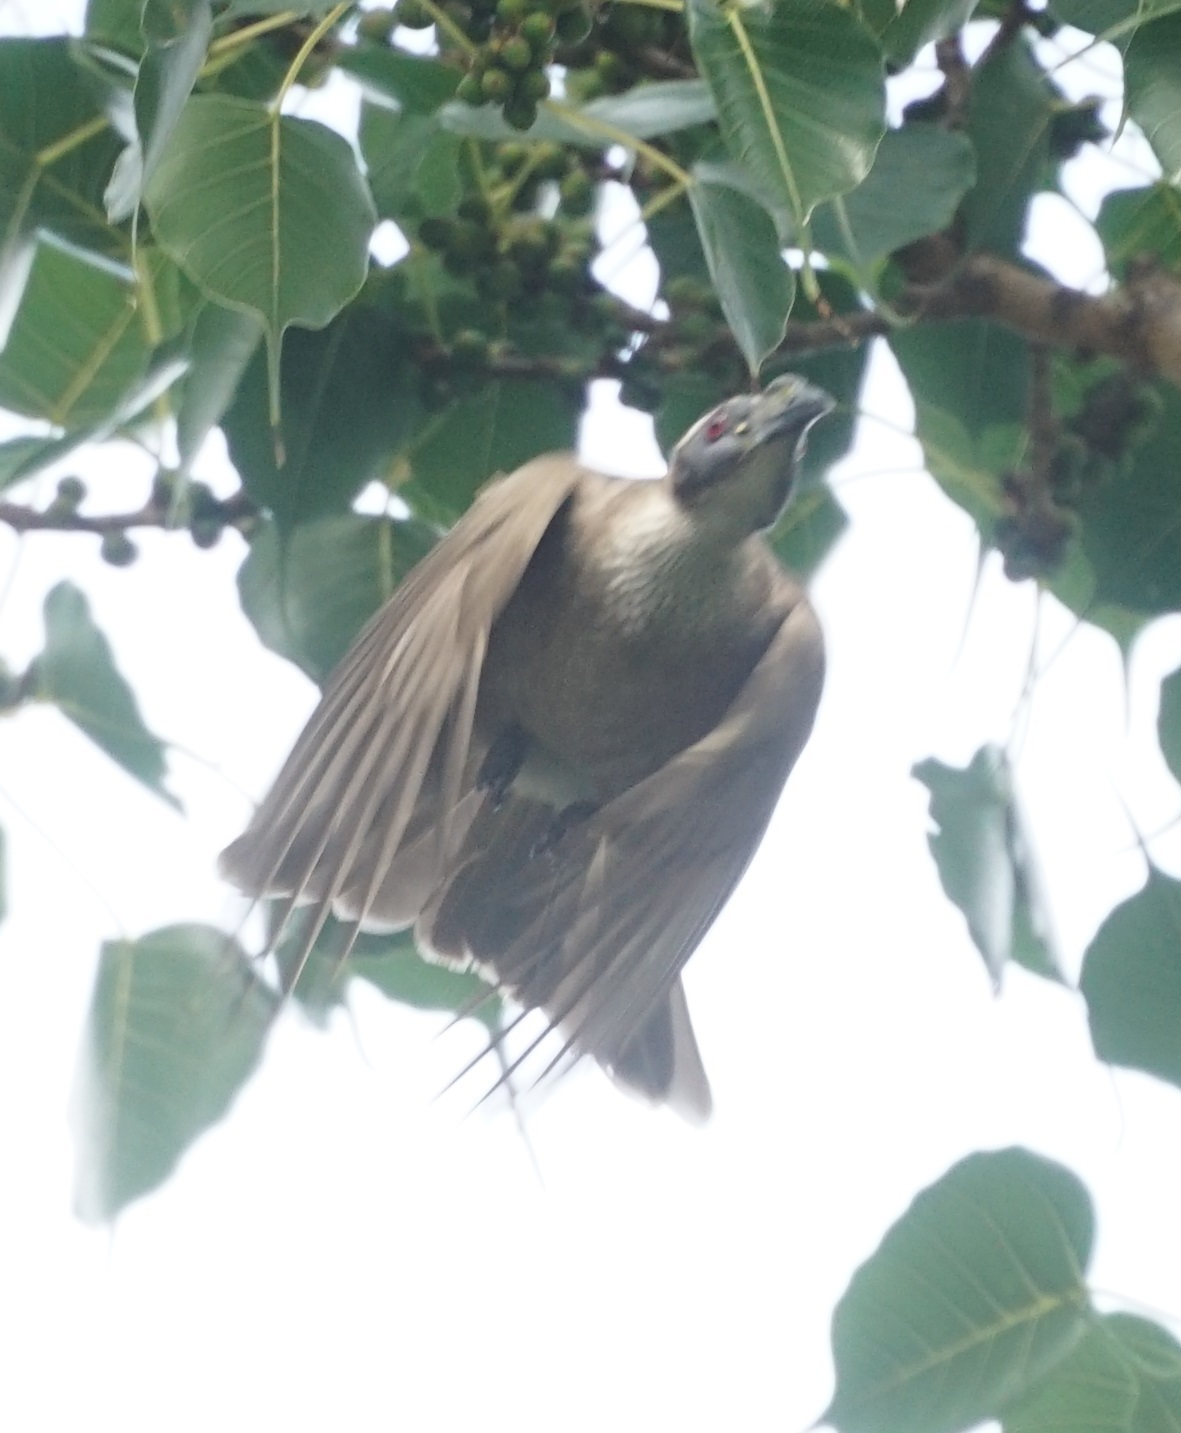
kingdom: Animalia
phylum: Chordata
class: Aves
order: Passeriformes
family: Meliphagidae
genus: Philemon
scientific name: Philemon buceroides
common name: Helmeted friarbird
